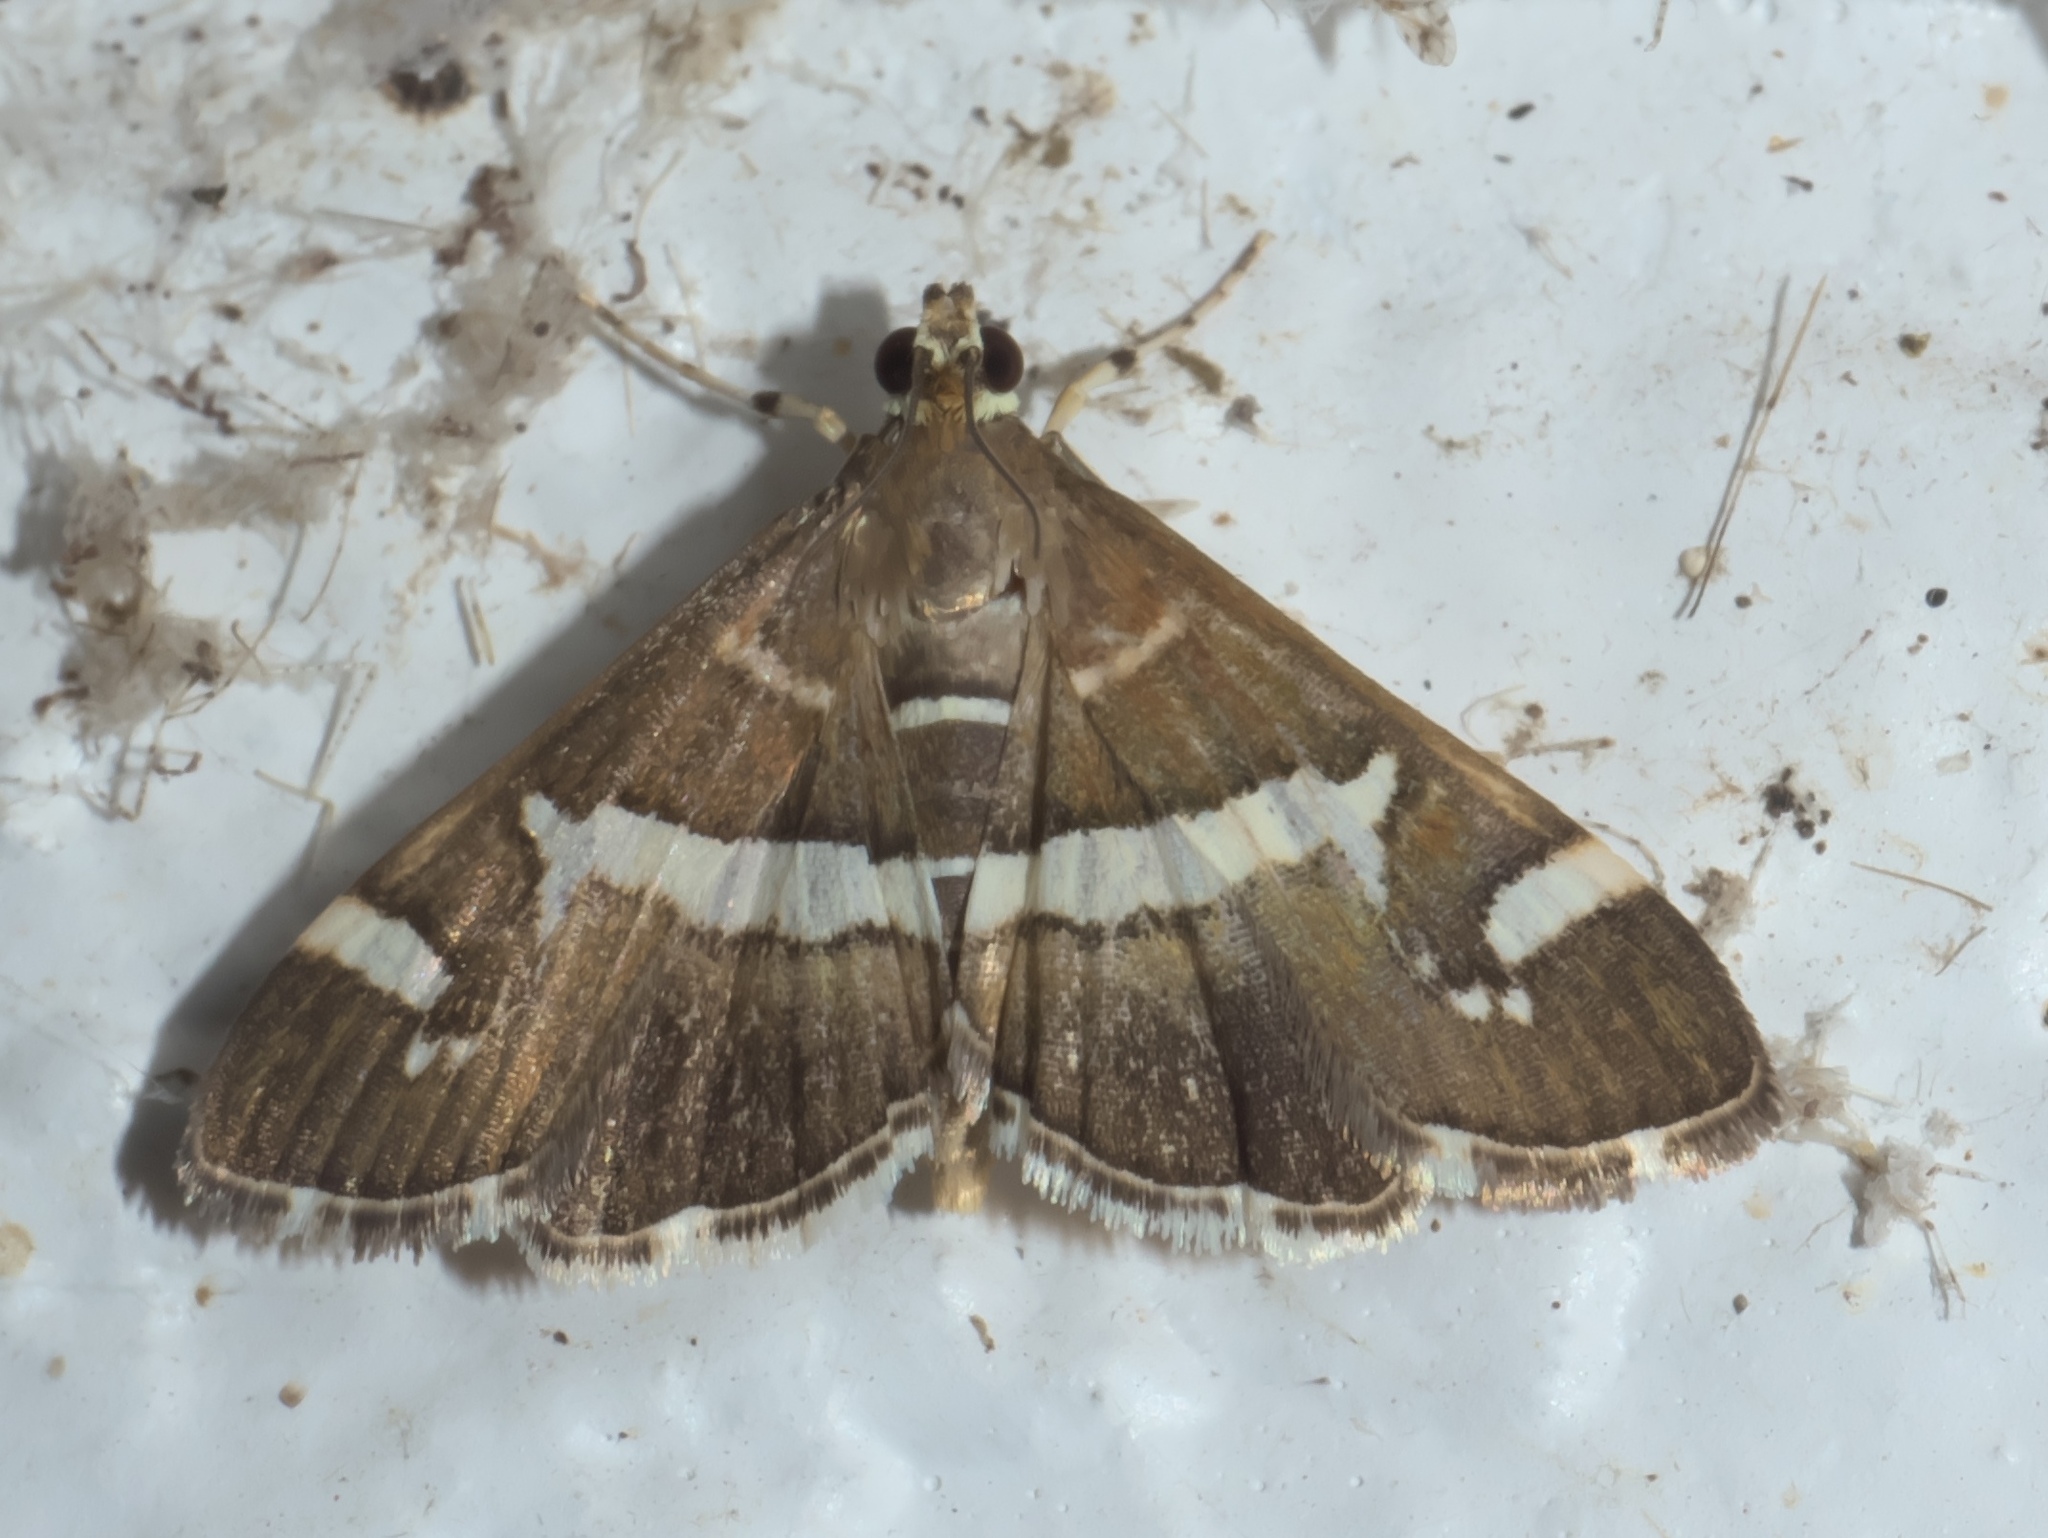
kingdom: Animalia
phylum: Arthropoda
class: Insecta
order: Lepidoptera
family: Crambidae
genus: Spoladea
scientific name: Spoladea recurvalis
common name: Beet webworm moth
